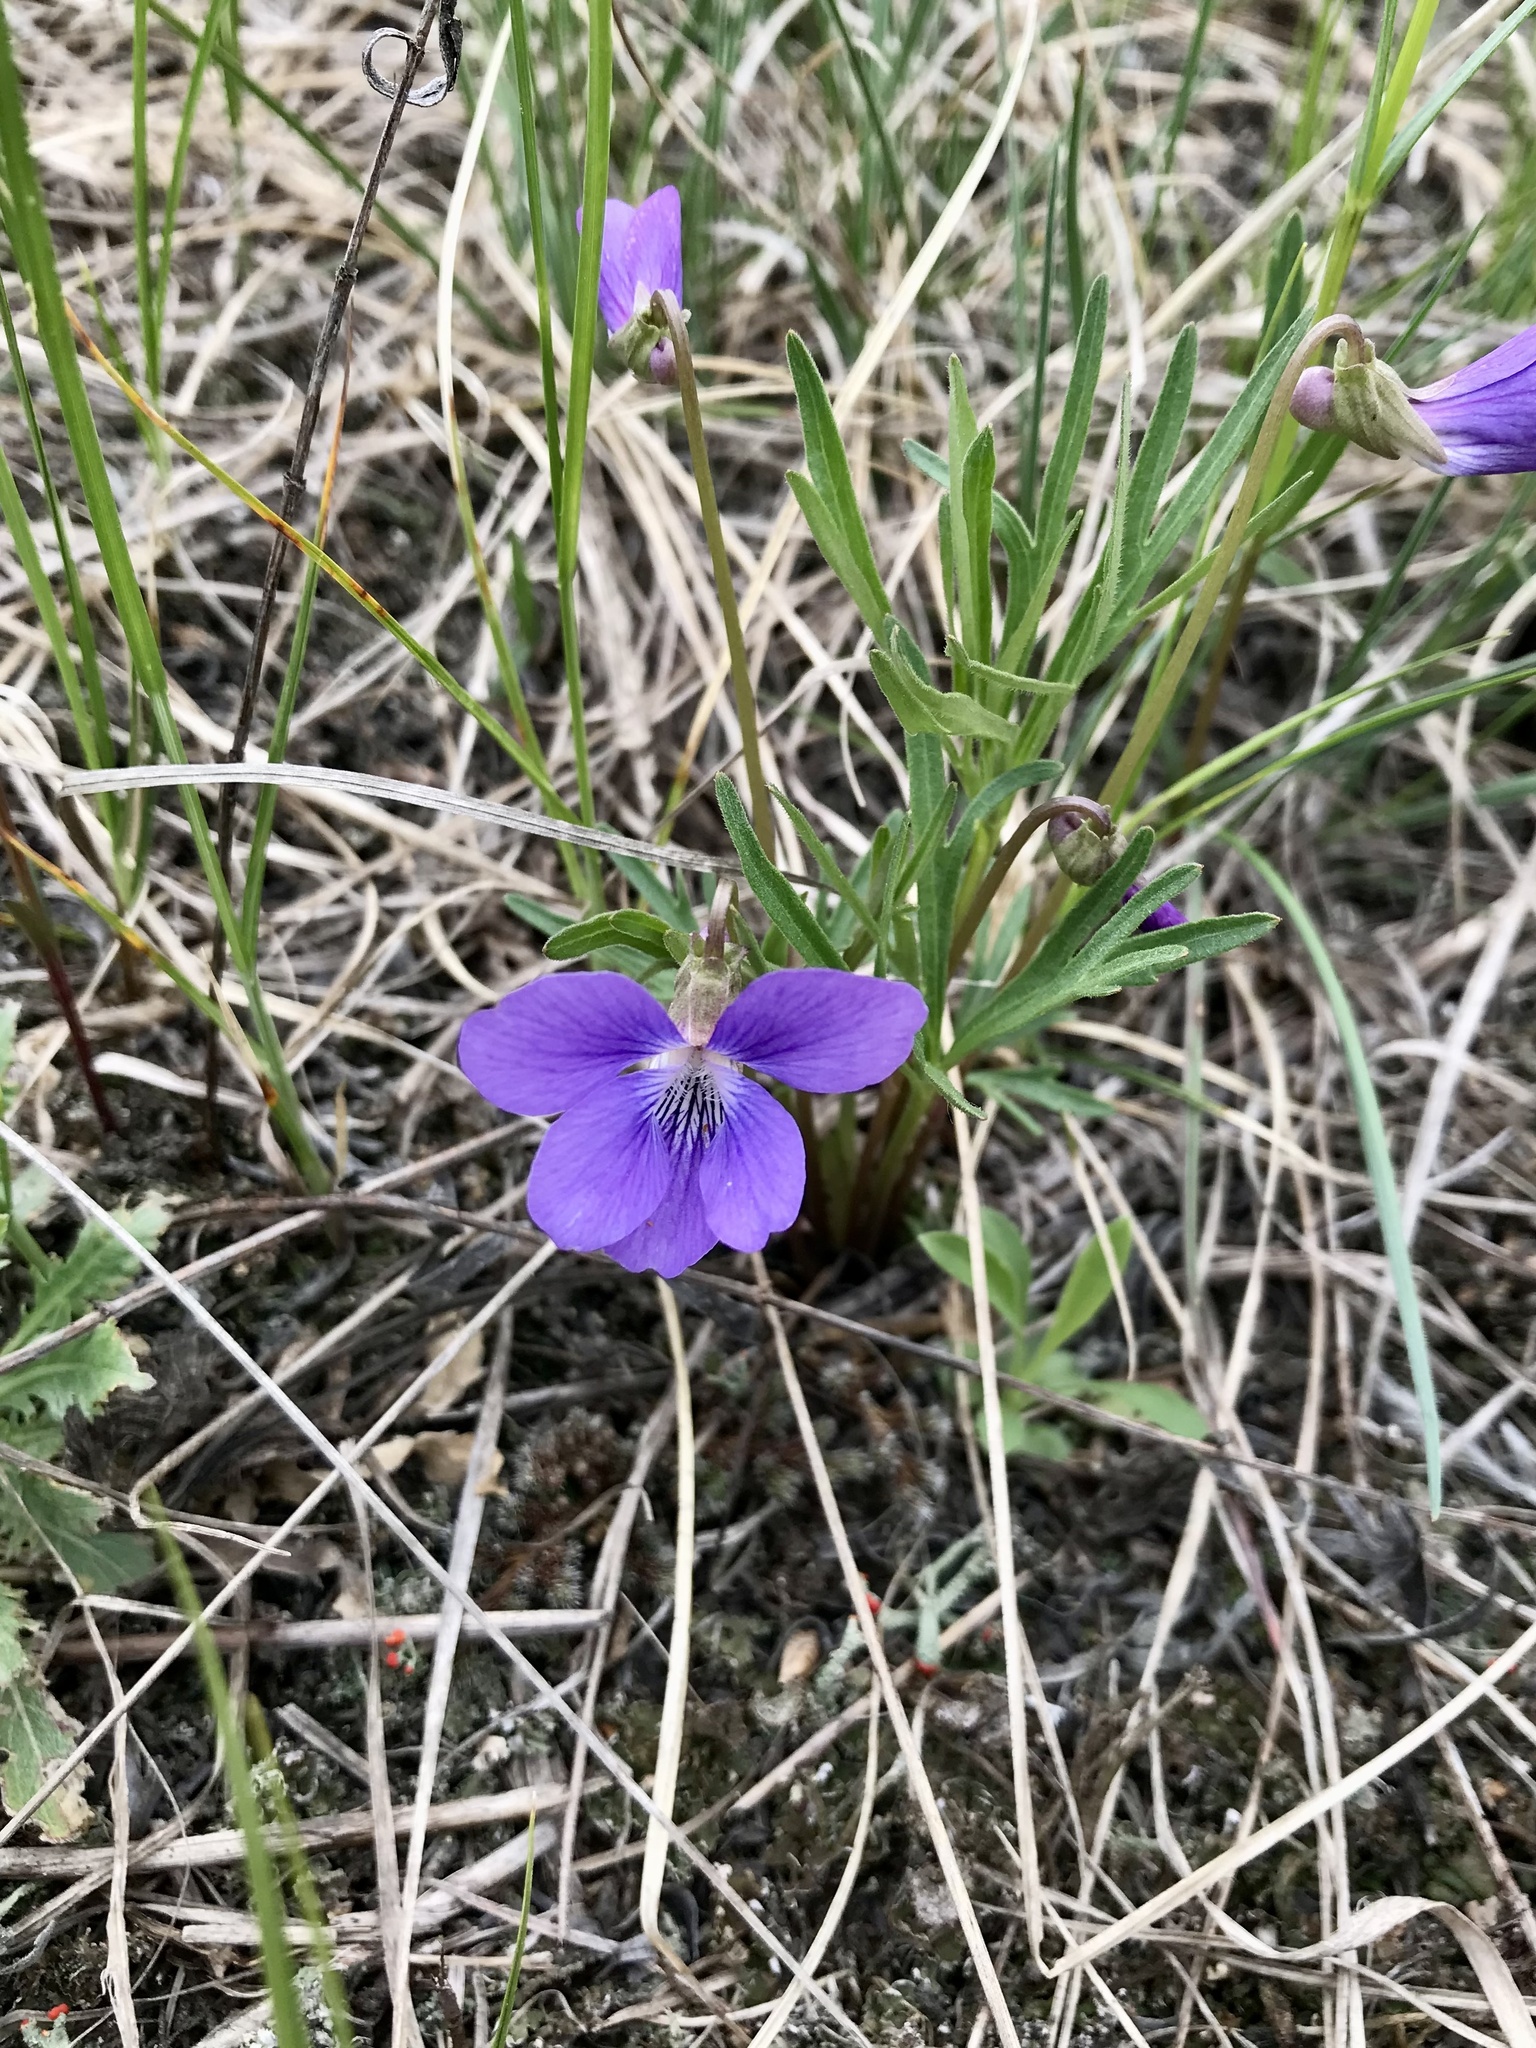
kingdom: Plantae
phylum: Tracheophyta
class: Magnoliopsida
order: Malpighiales
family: Violaceae
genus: Viola
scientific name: Viola pedatifida
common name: Prairie violet
